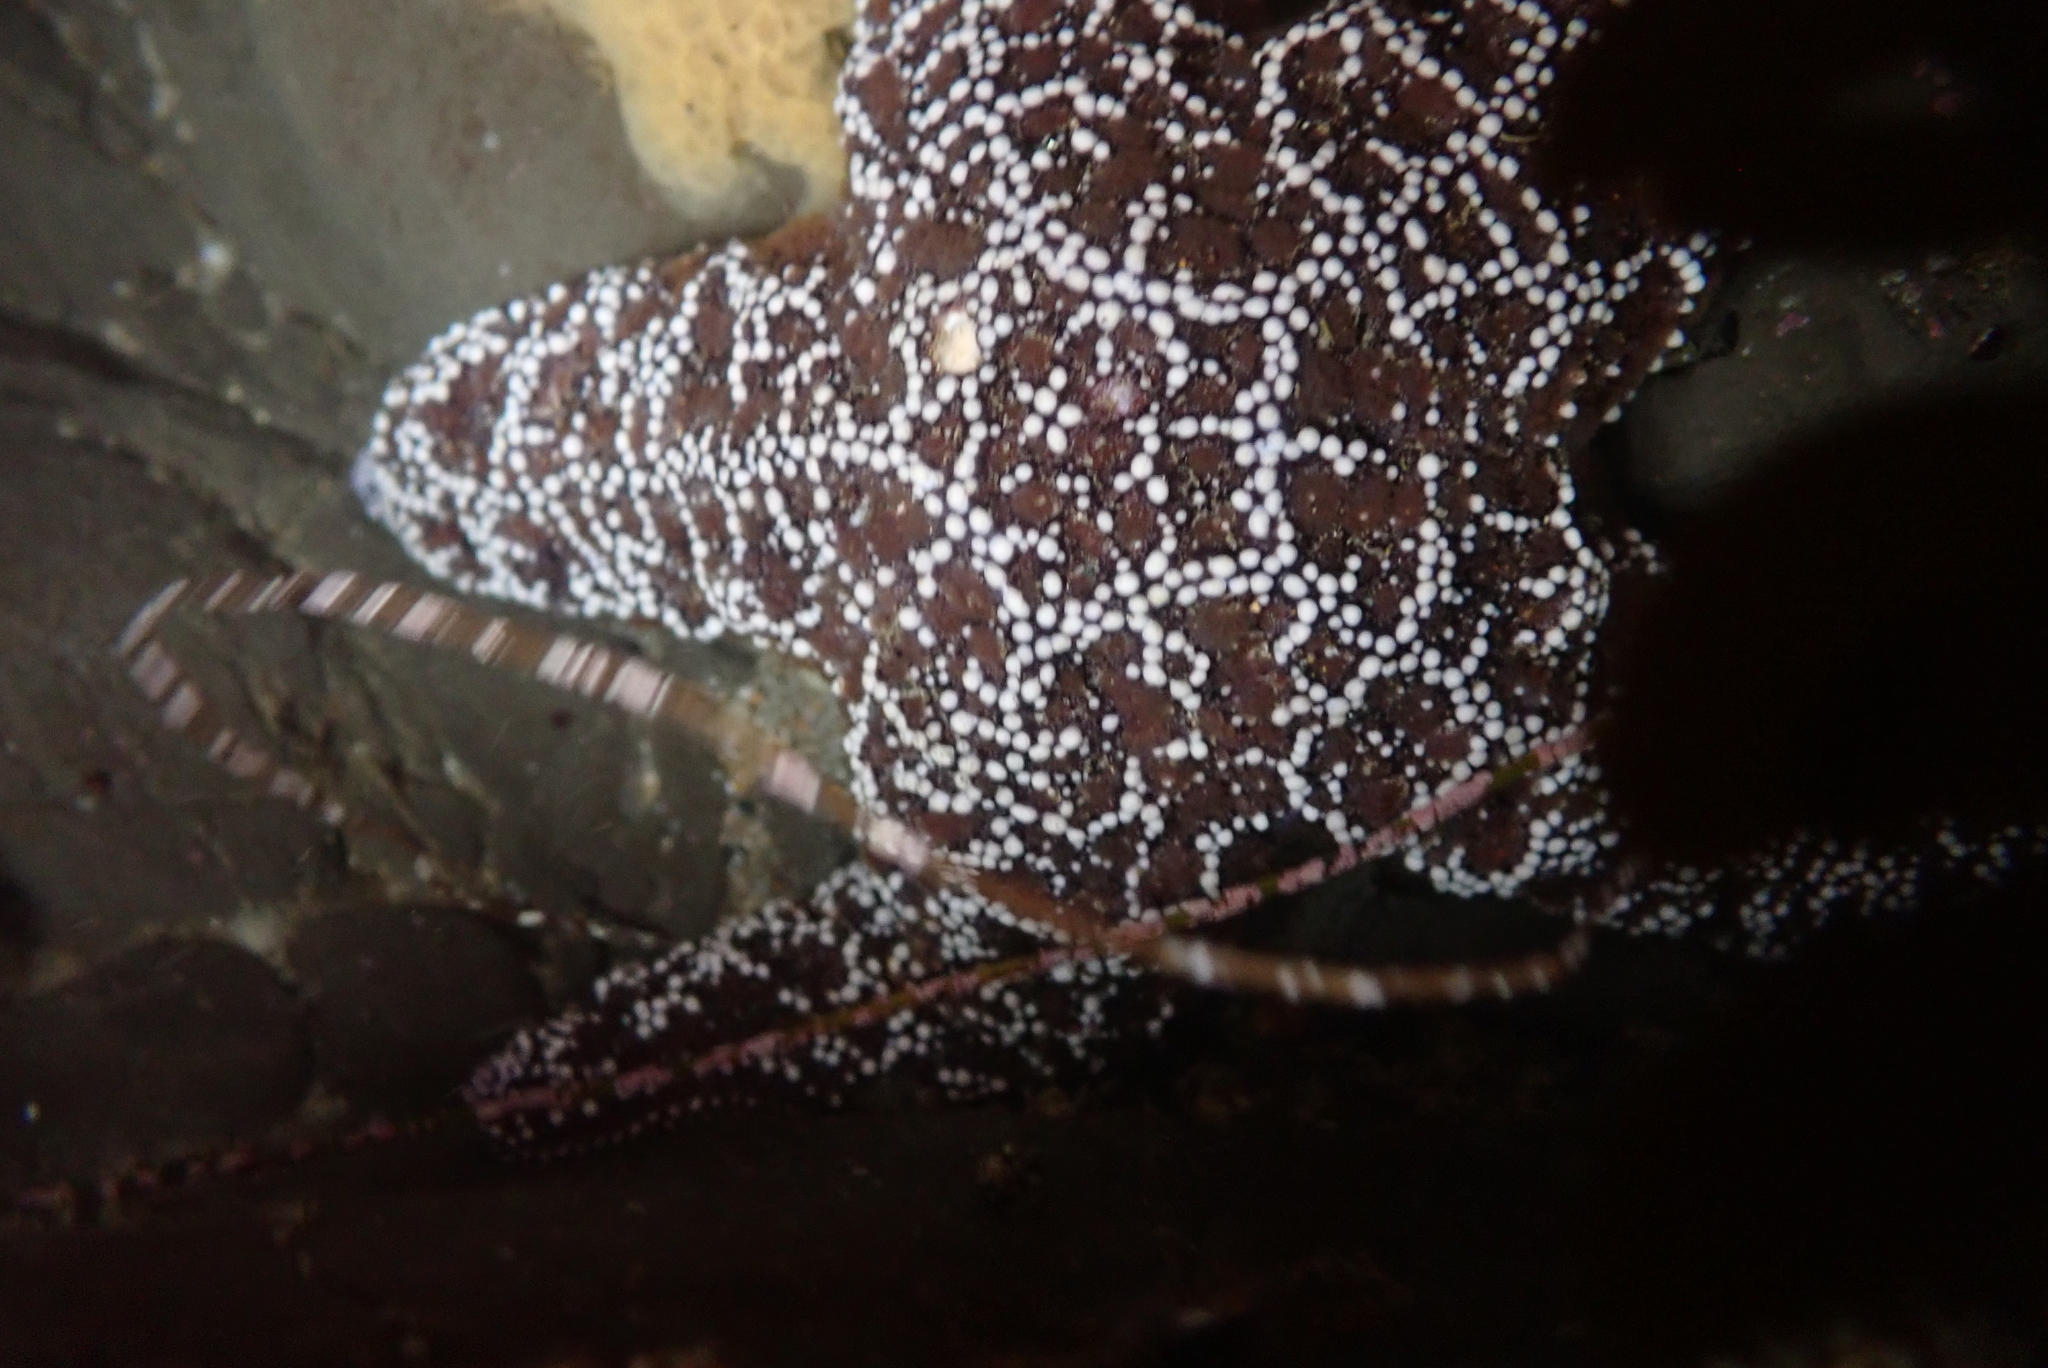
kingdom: Animalia
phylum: Echinodermata
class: Asteroidea
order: Forcipulatida
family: Asteriidae
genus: Pisaster
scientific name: Pisaster ochraceus
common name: Ochre stars
